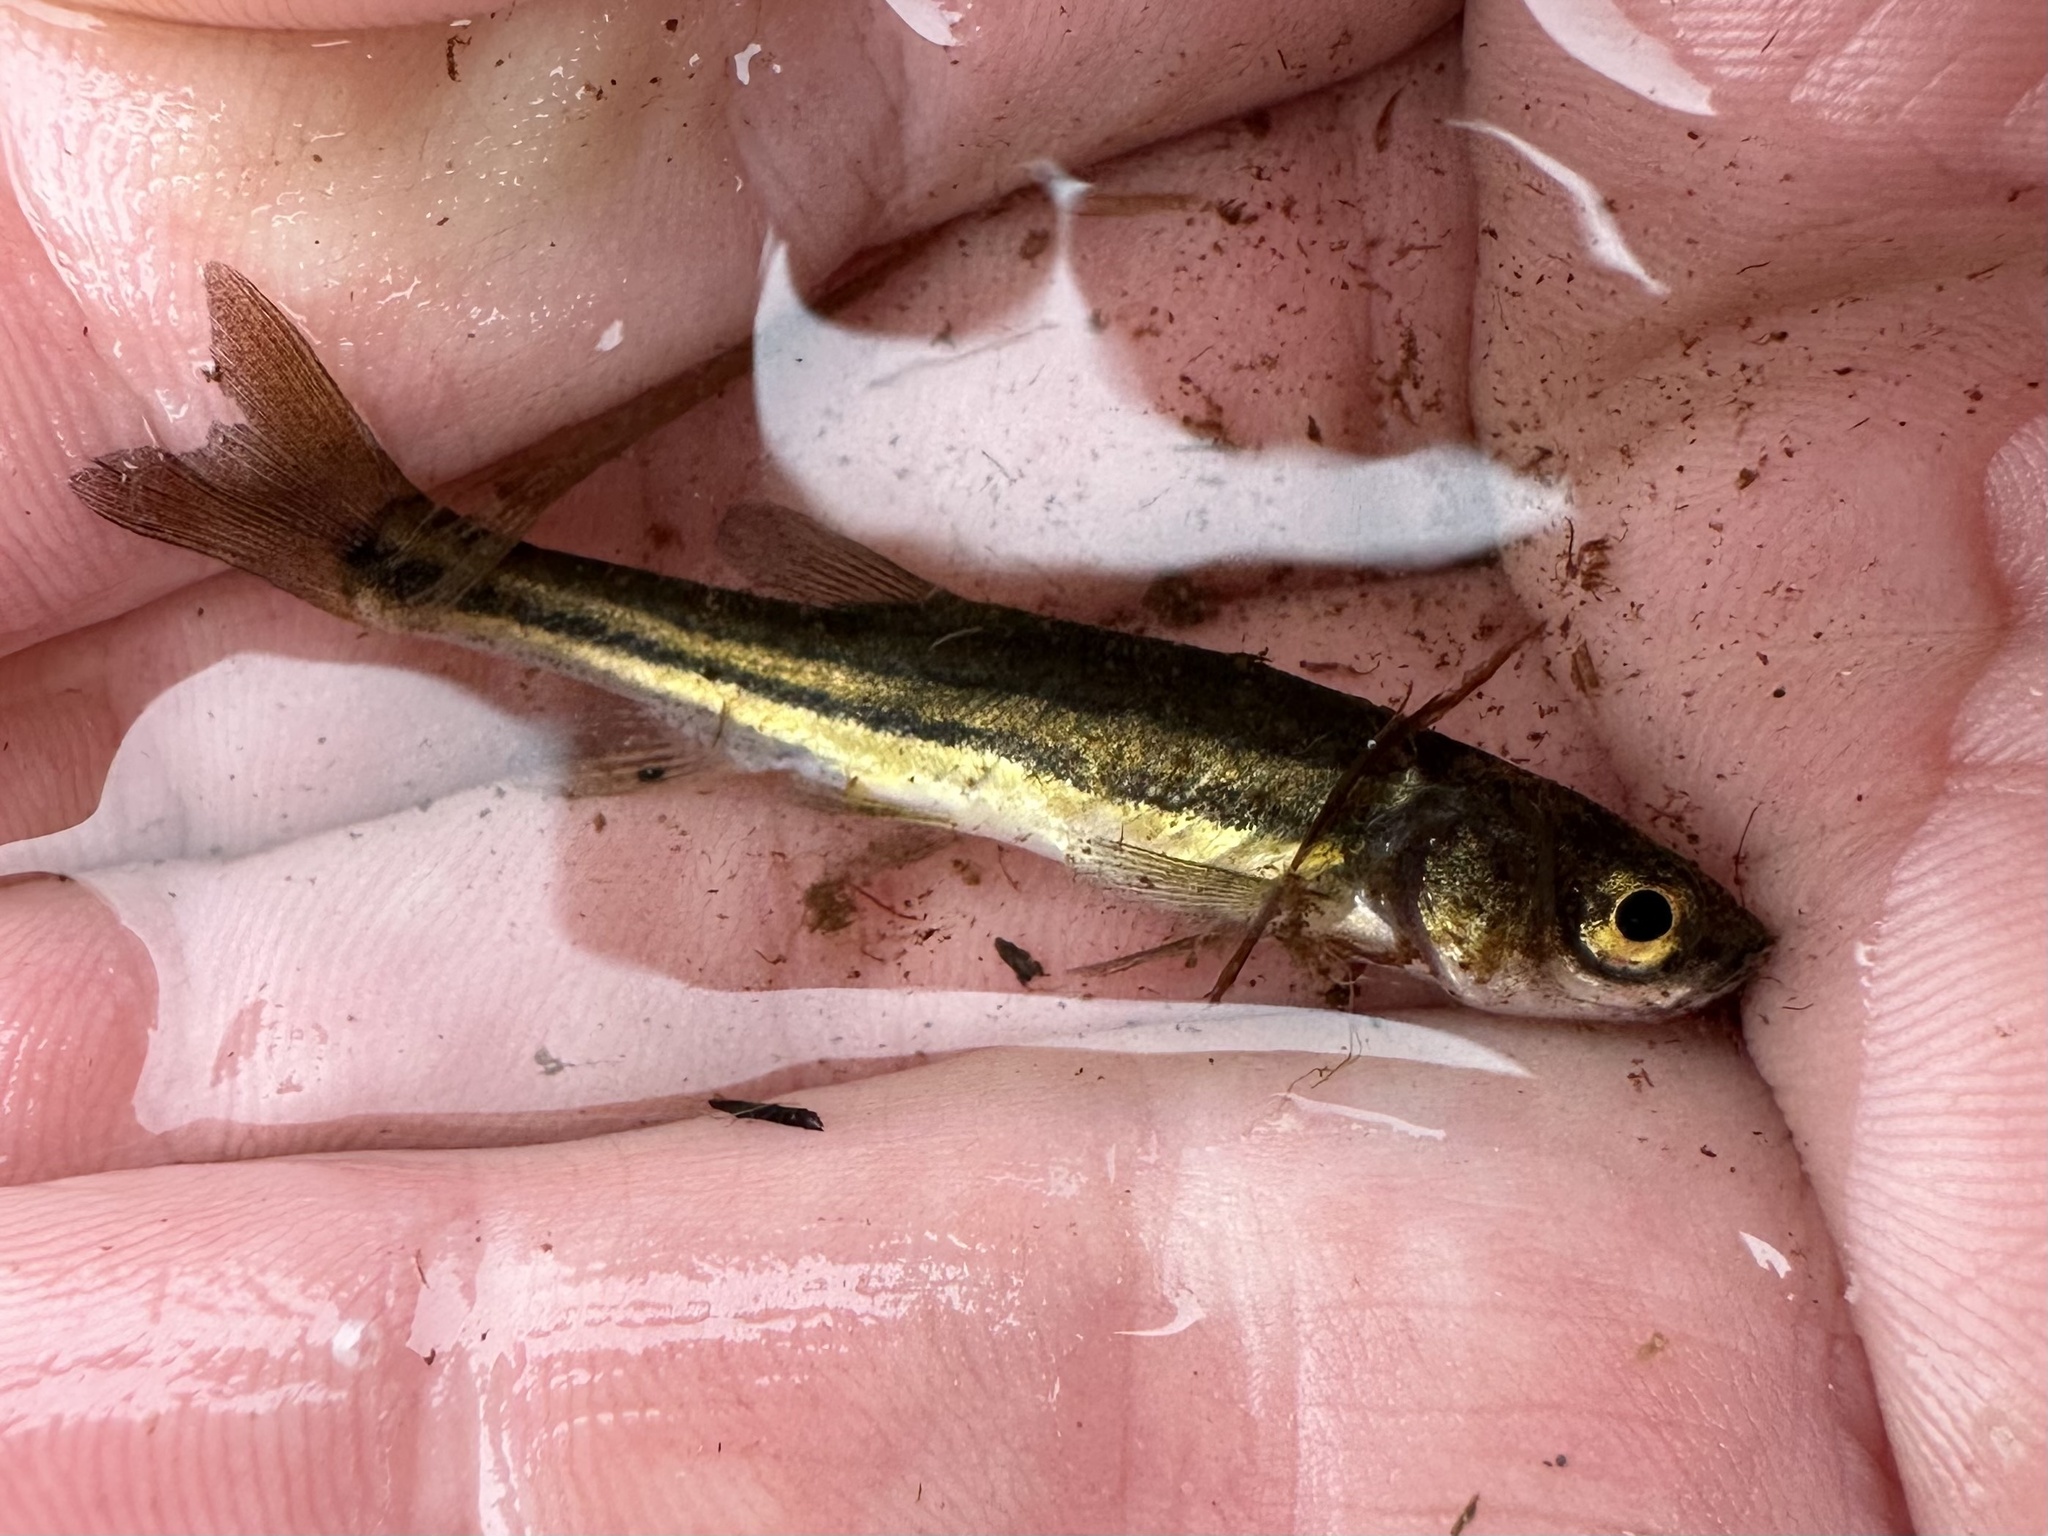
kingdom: Animalia
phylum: Chordata
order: Cypriniformes
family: Cyprinidae
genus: Chrosomus
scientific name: Chrosomus eos
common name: Northern redbelly dace
